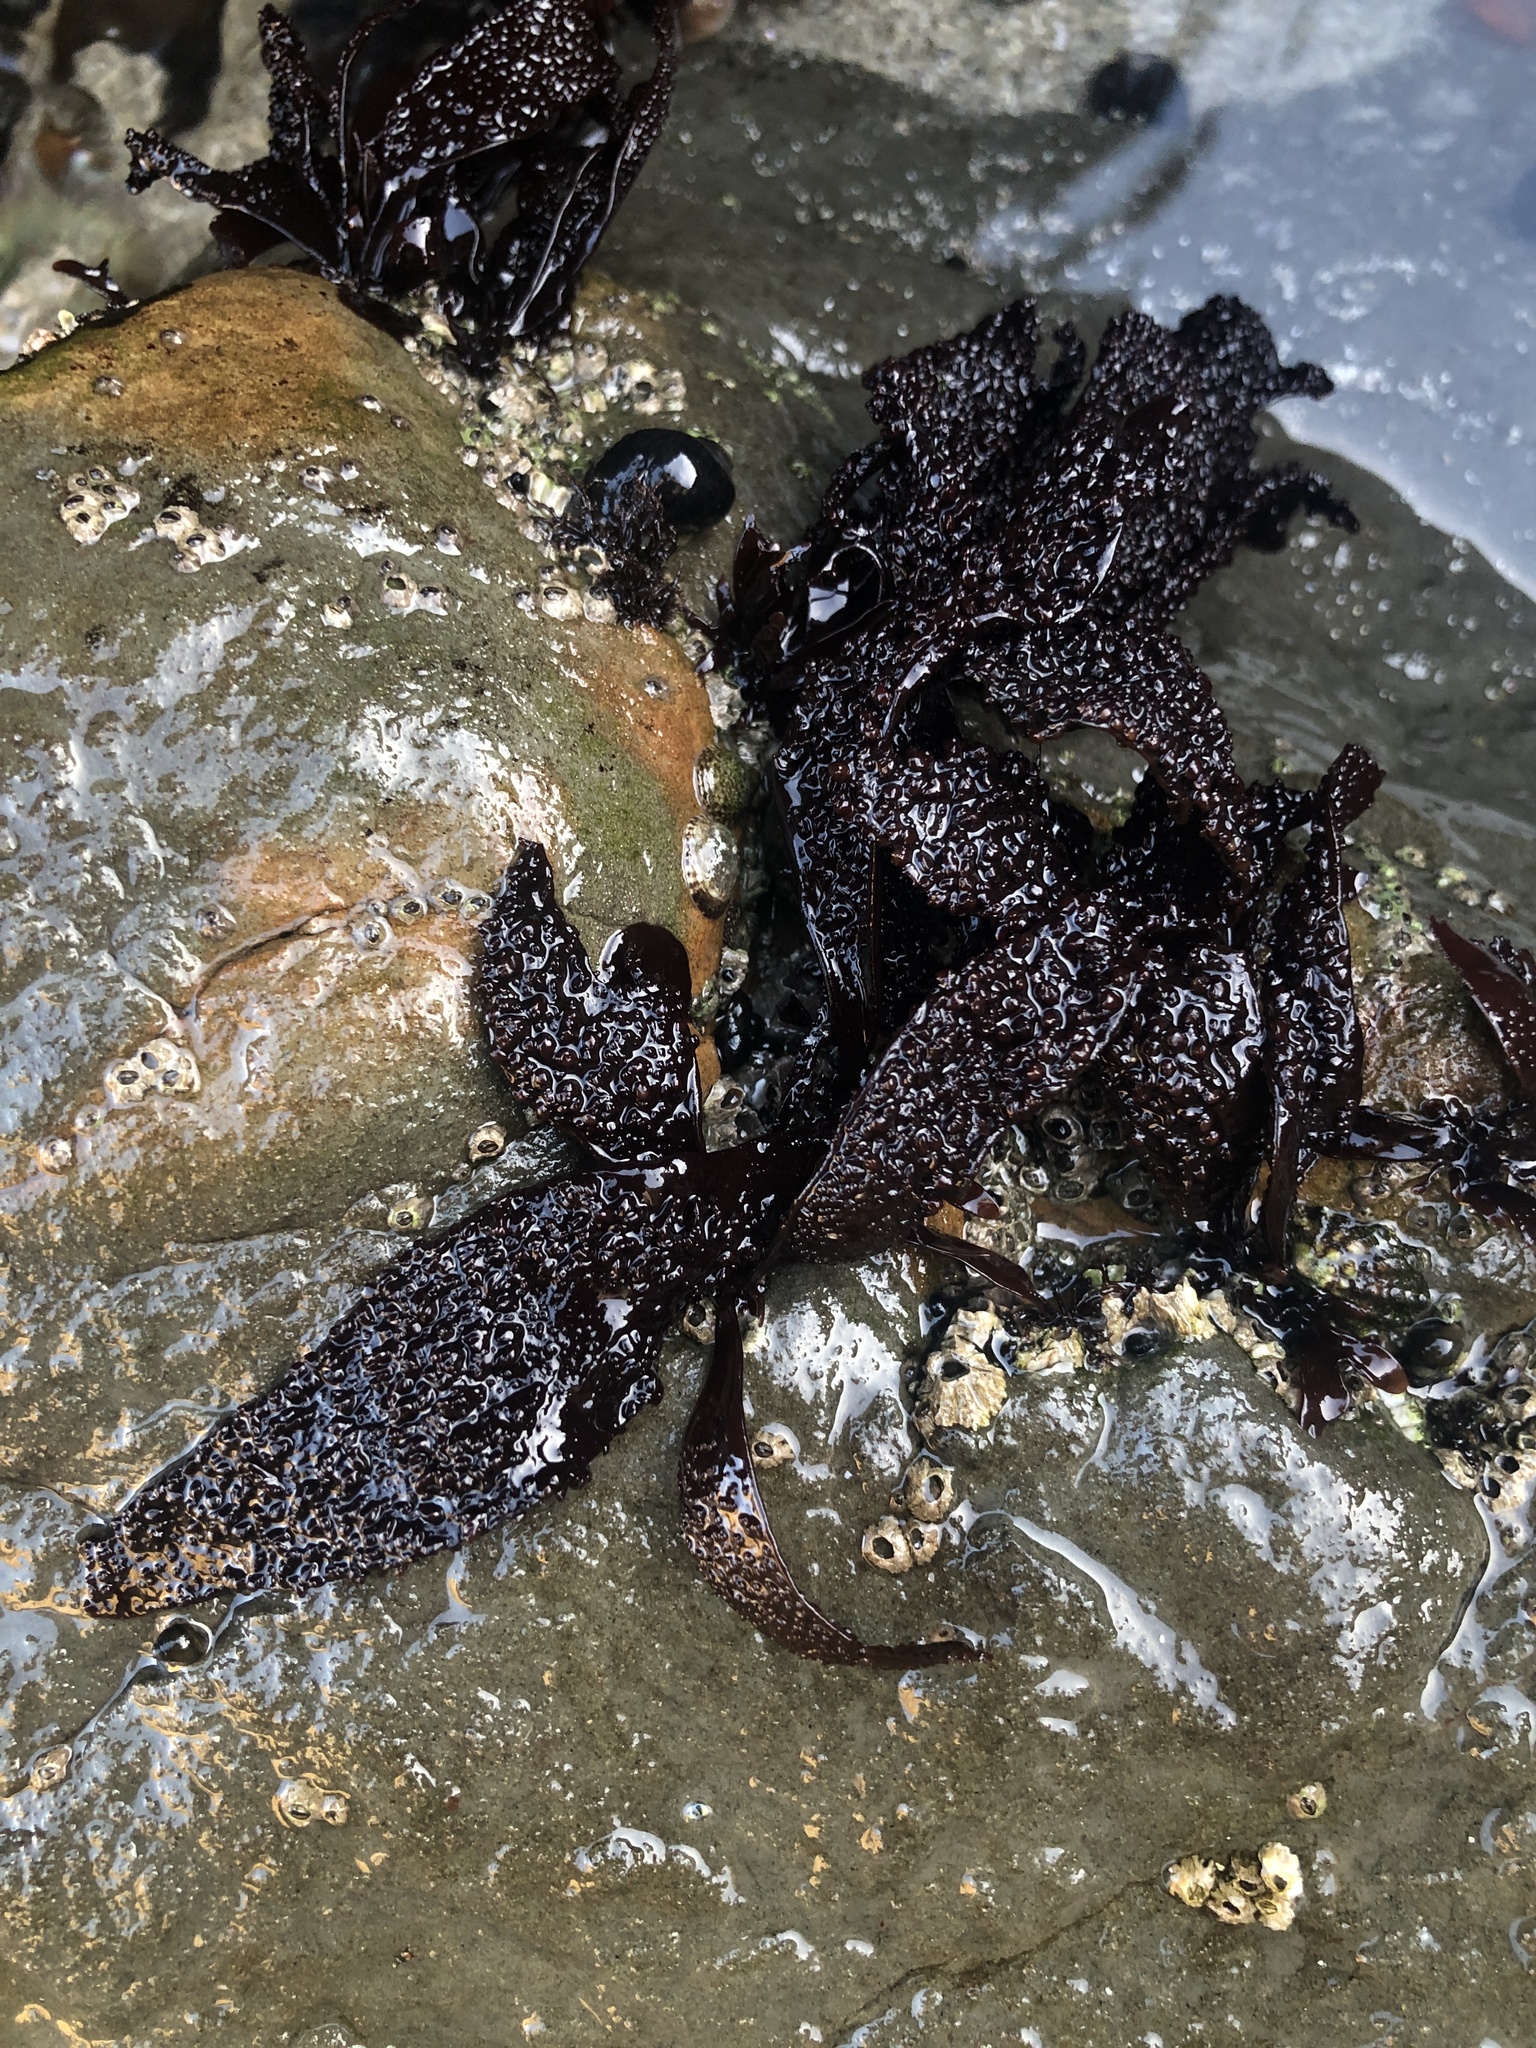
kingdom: Plantae
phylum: Rhodophyta
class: Florideophyceae
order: Gigartinales
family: Phyllophoraceae
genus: Mastocarpus
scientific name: Mastocarpus papillatus
